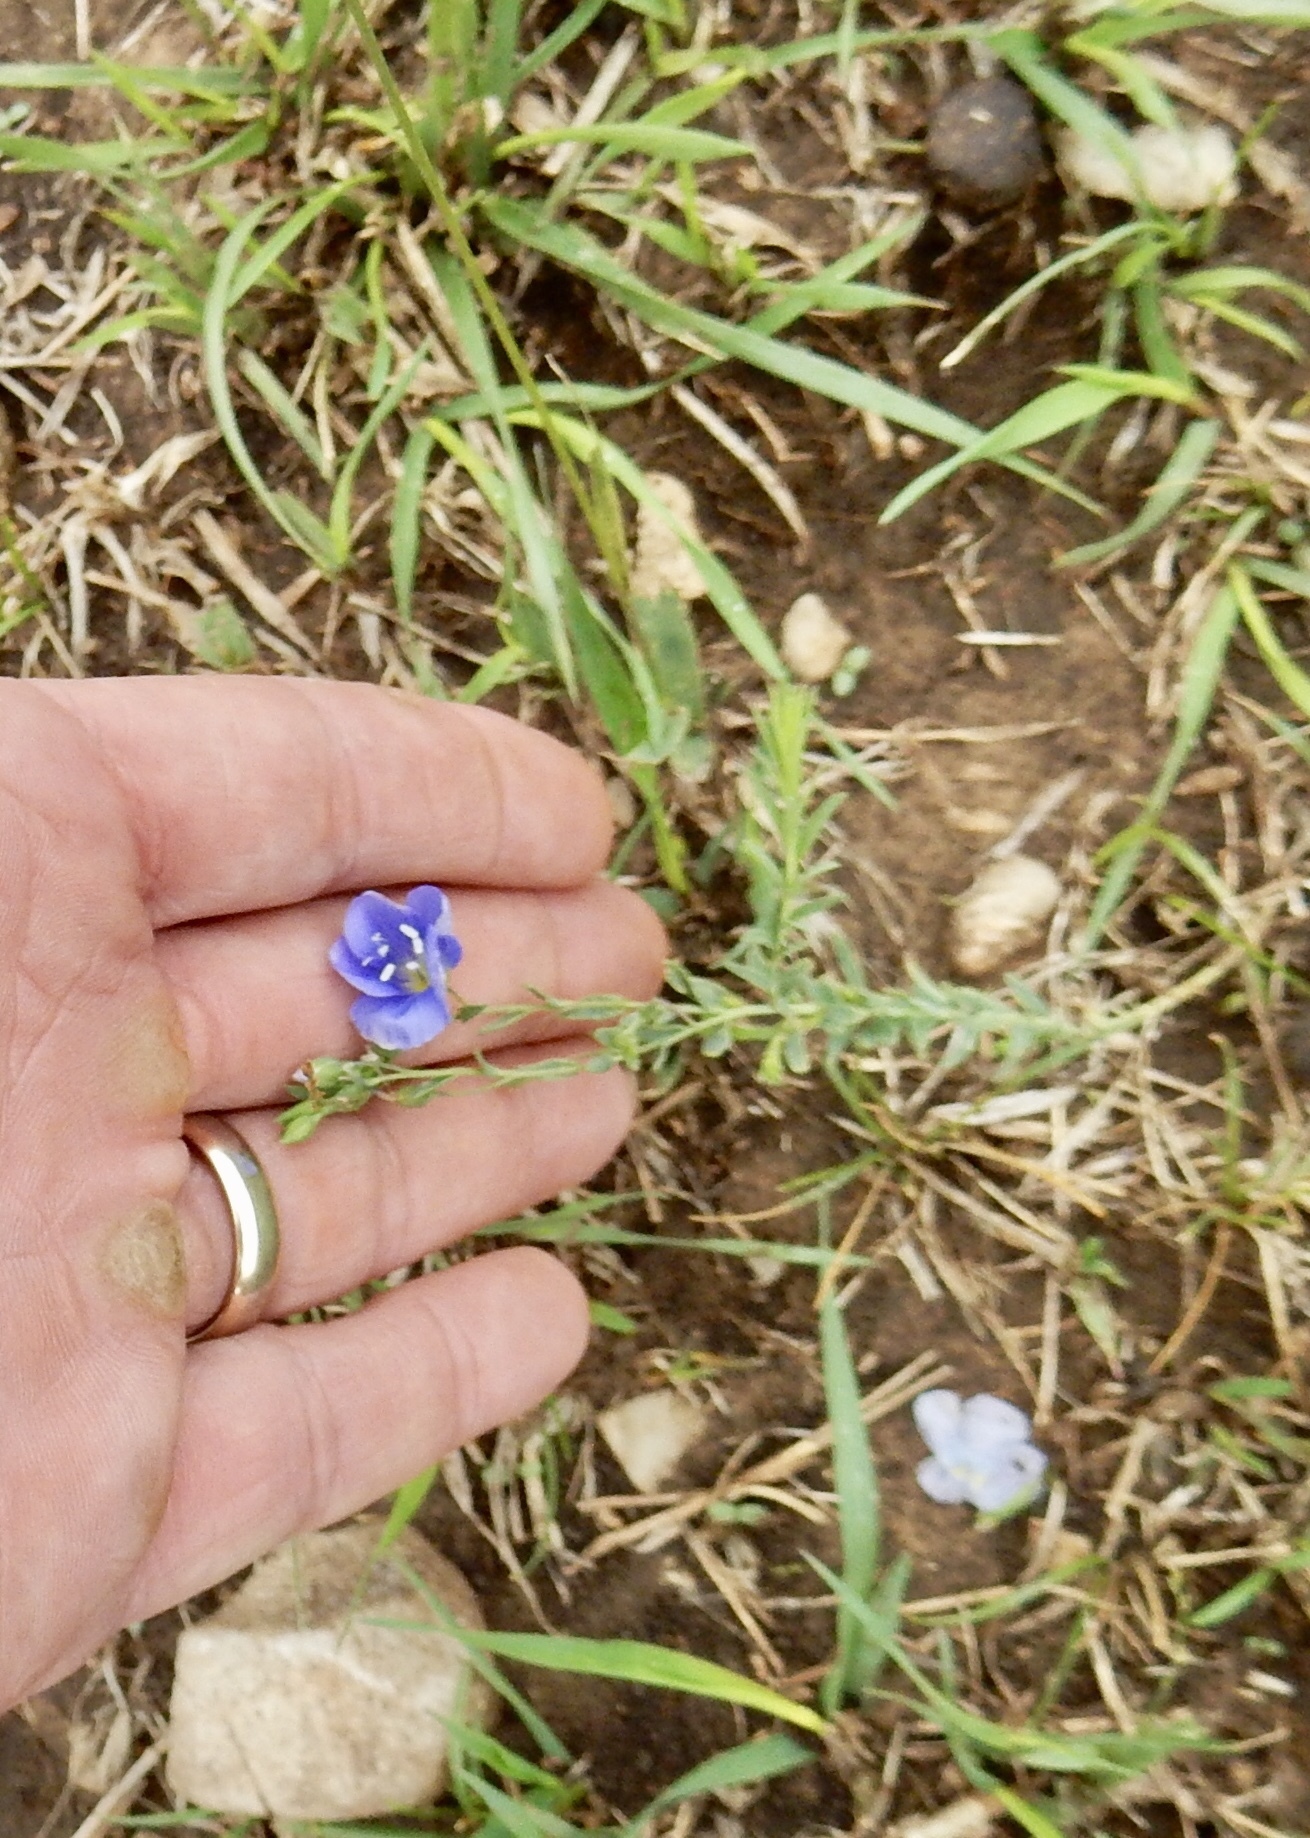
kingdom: Plantae
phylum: Tracheophyta
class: Magnoliopsida
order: Malpighiales
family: Linaceae
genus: Linum
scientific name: Linum lewisii
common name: Prairie flax
